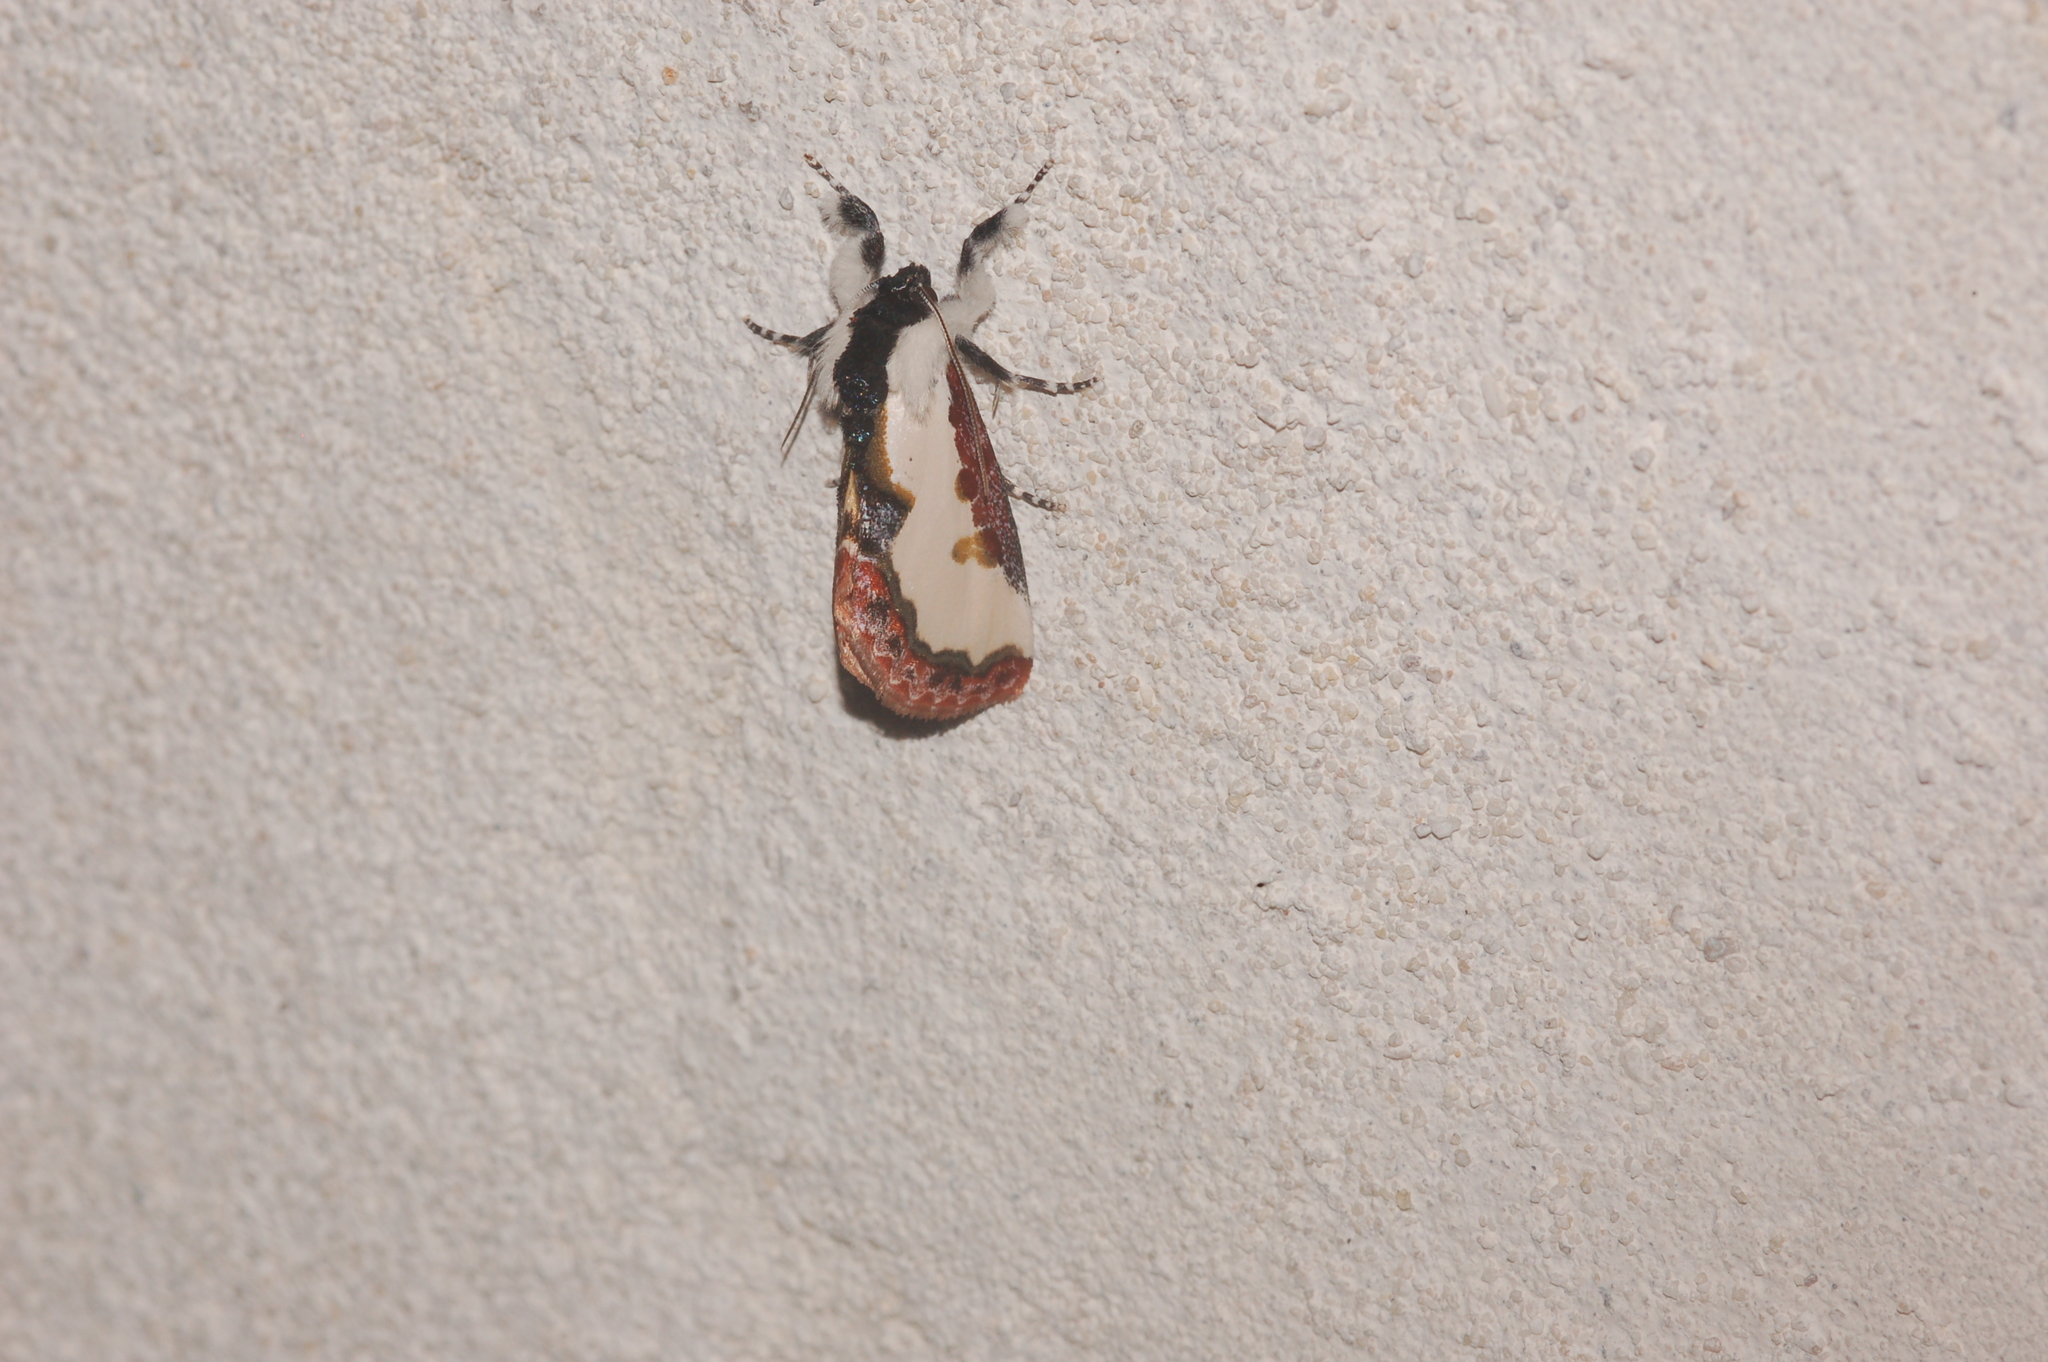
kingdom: Animalia
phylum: Arthropoda
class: Insecta
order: Lepidoptera
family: Noctuidae
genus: Eudryas
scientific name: Eudryas unio
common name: Pearly wood-nymph
